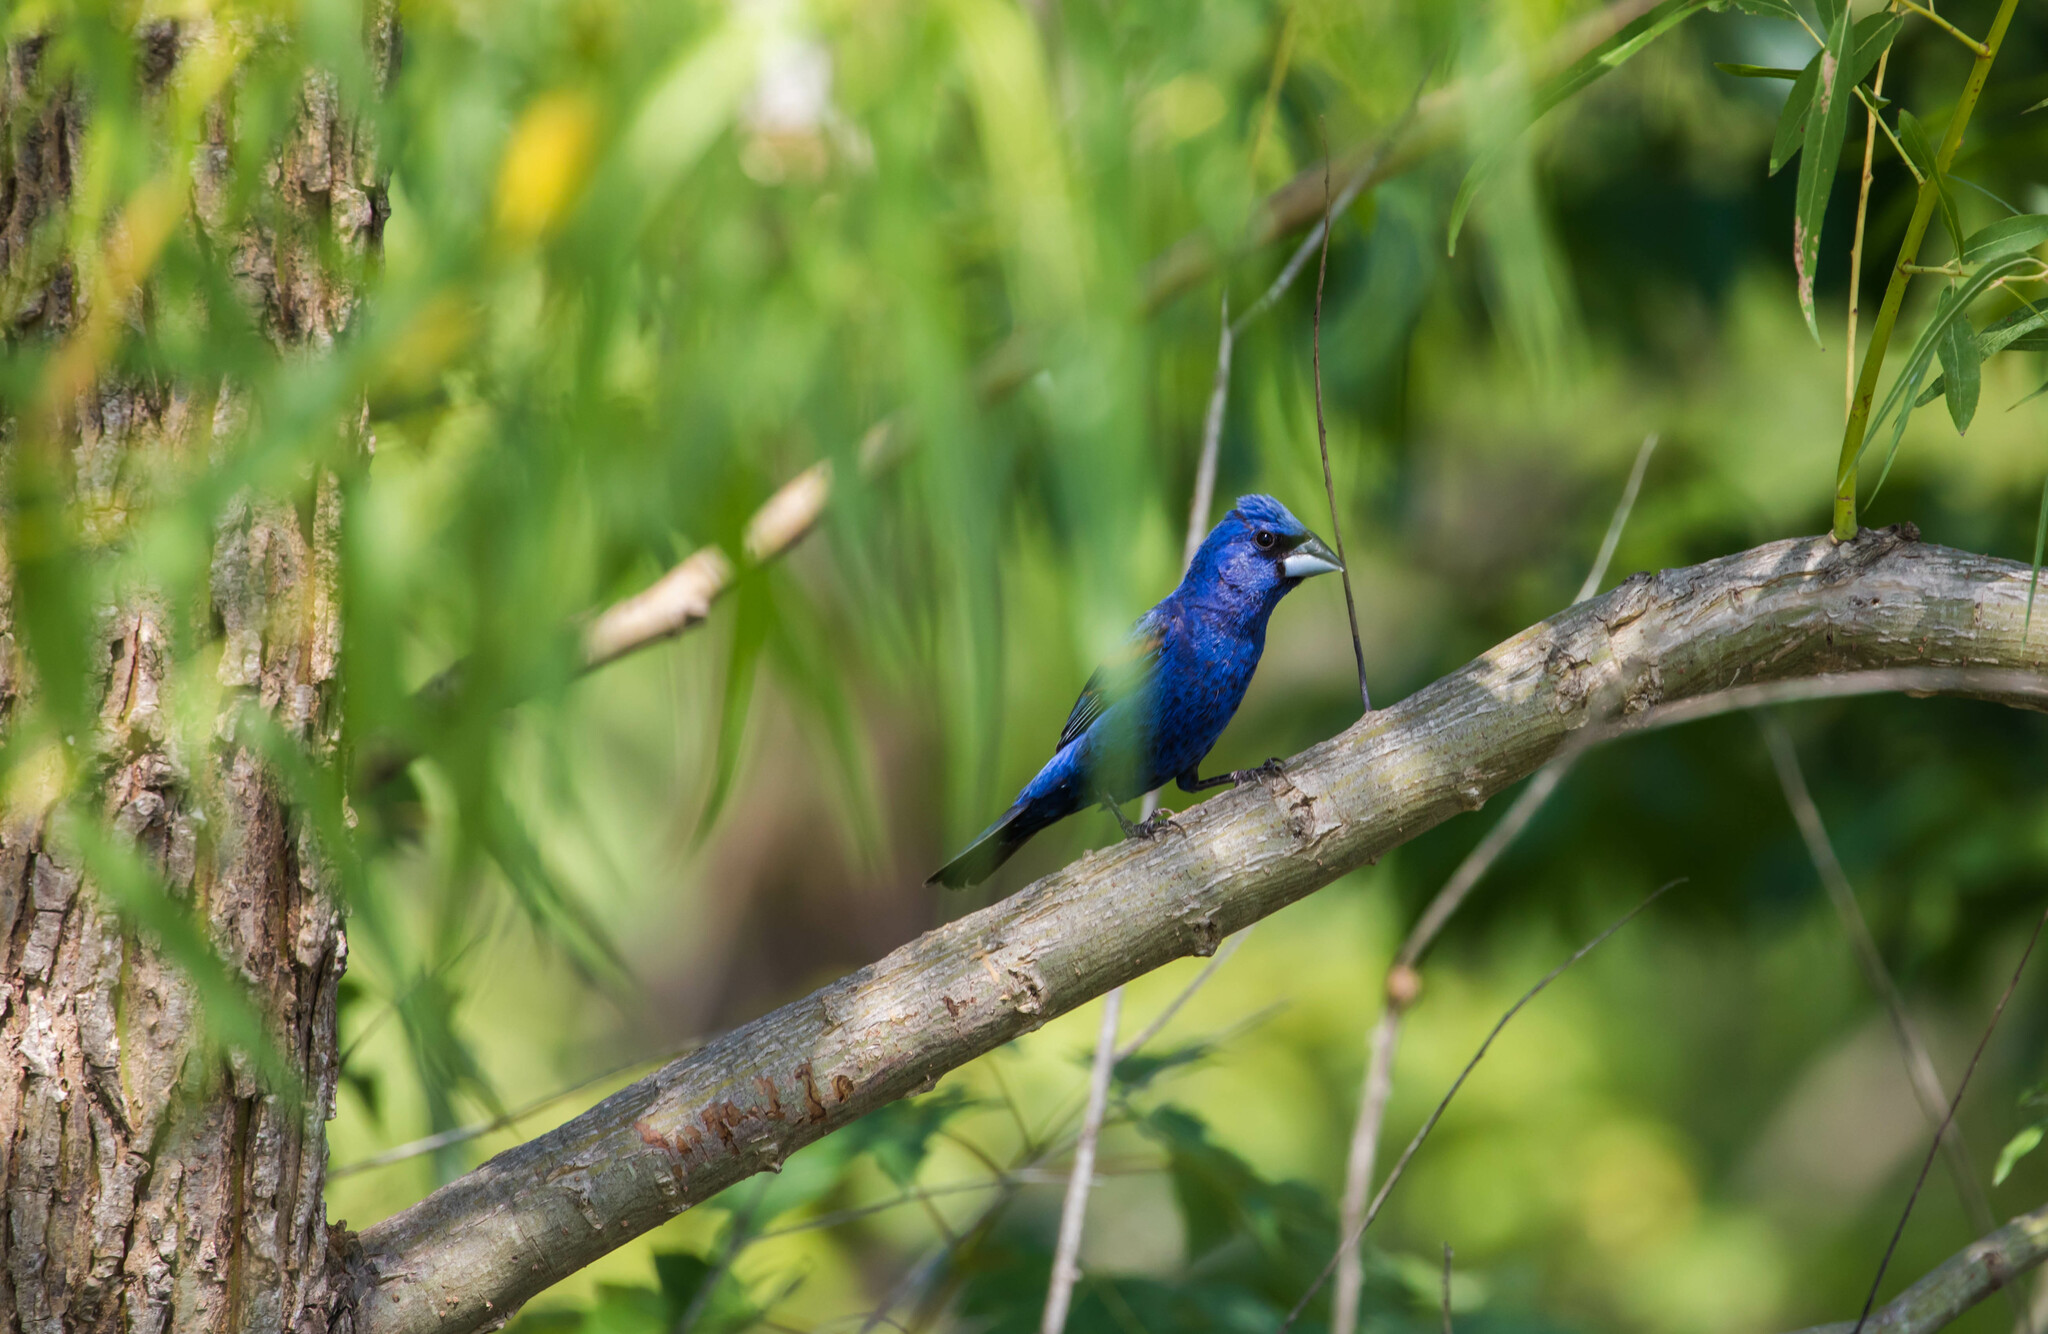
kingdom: Animalia
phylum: Chordata
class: Aves
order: Passeriformes
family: Cardinalidae
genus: Passerina
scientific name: Passerina caerulea
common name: Blue grosbeak
